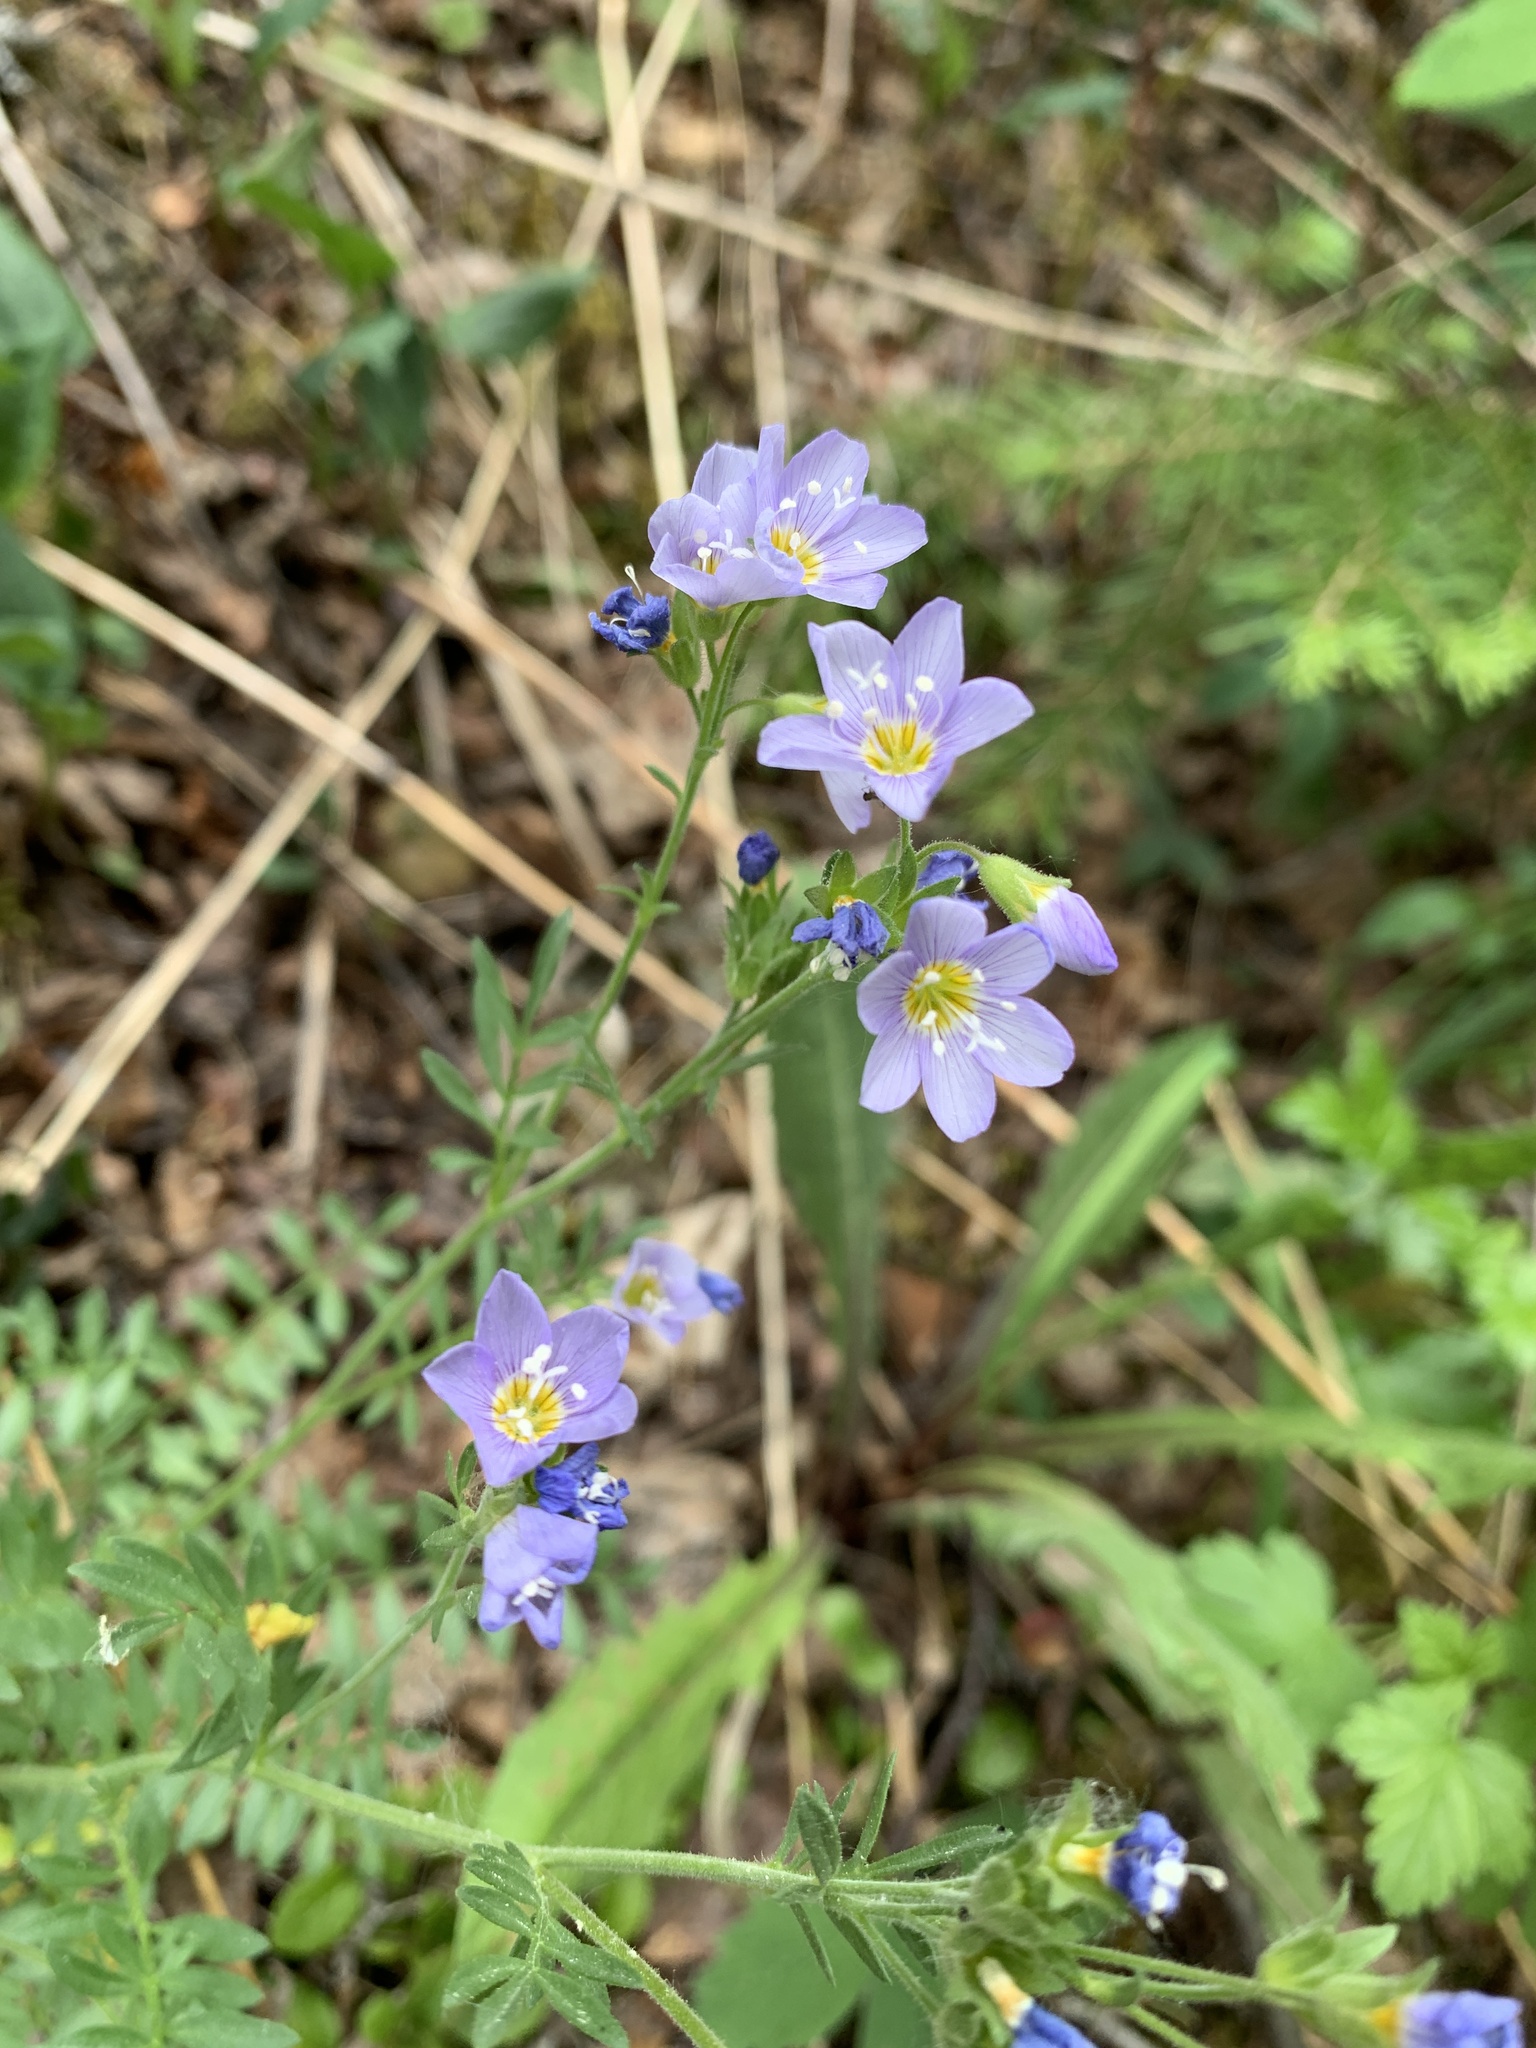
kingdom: Plantae
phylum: Tracheophyta
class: Magnoliopsida
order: Ericales
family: Polemoniaceae
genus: Polemonium
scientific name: Polemonium pulcherrimum
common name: Short jacob's-ladder
